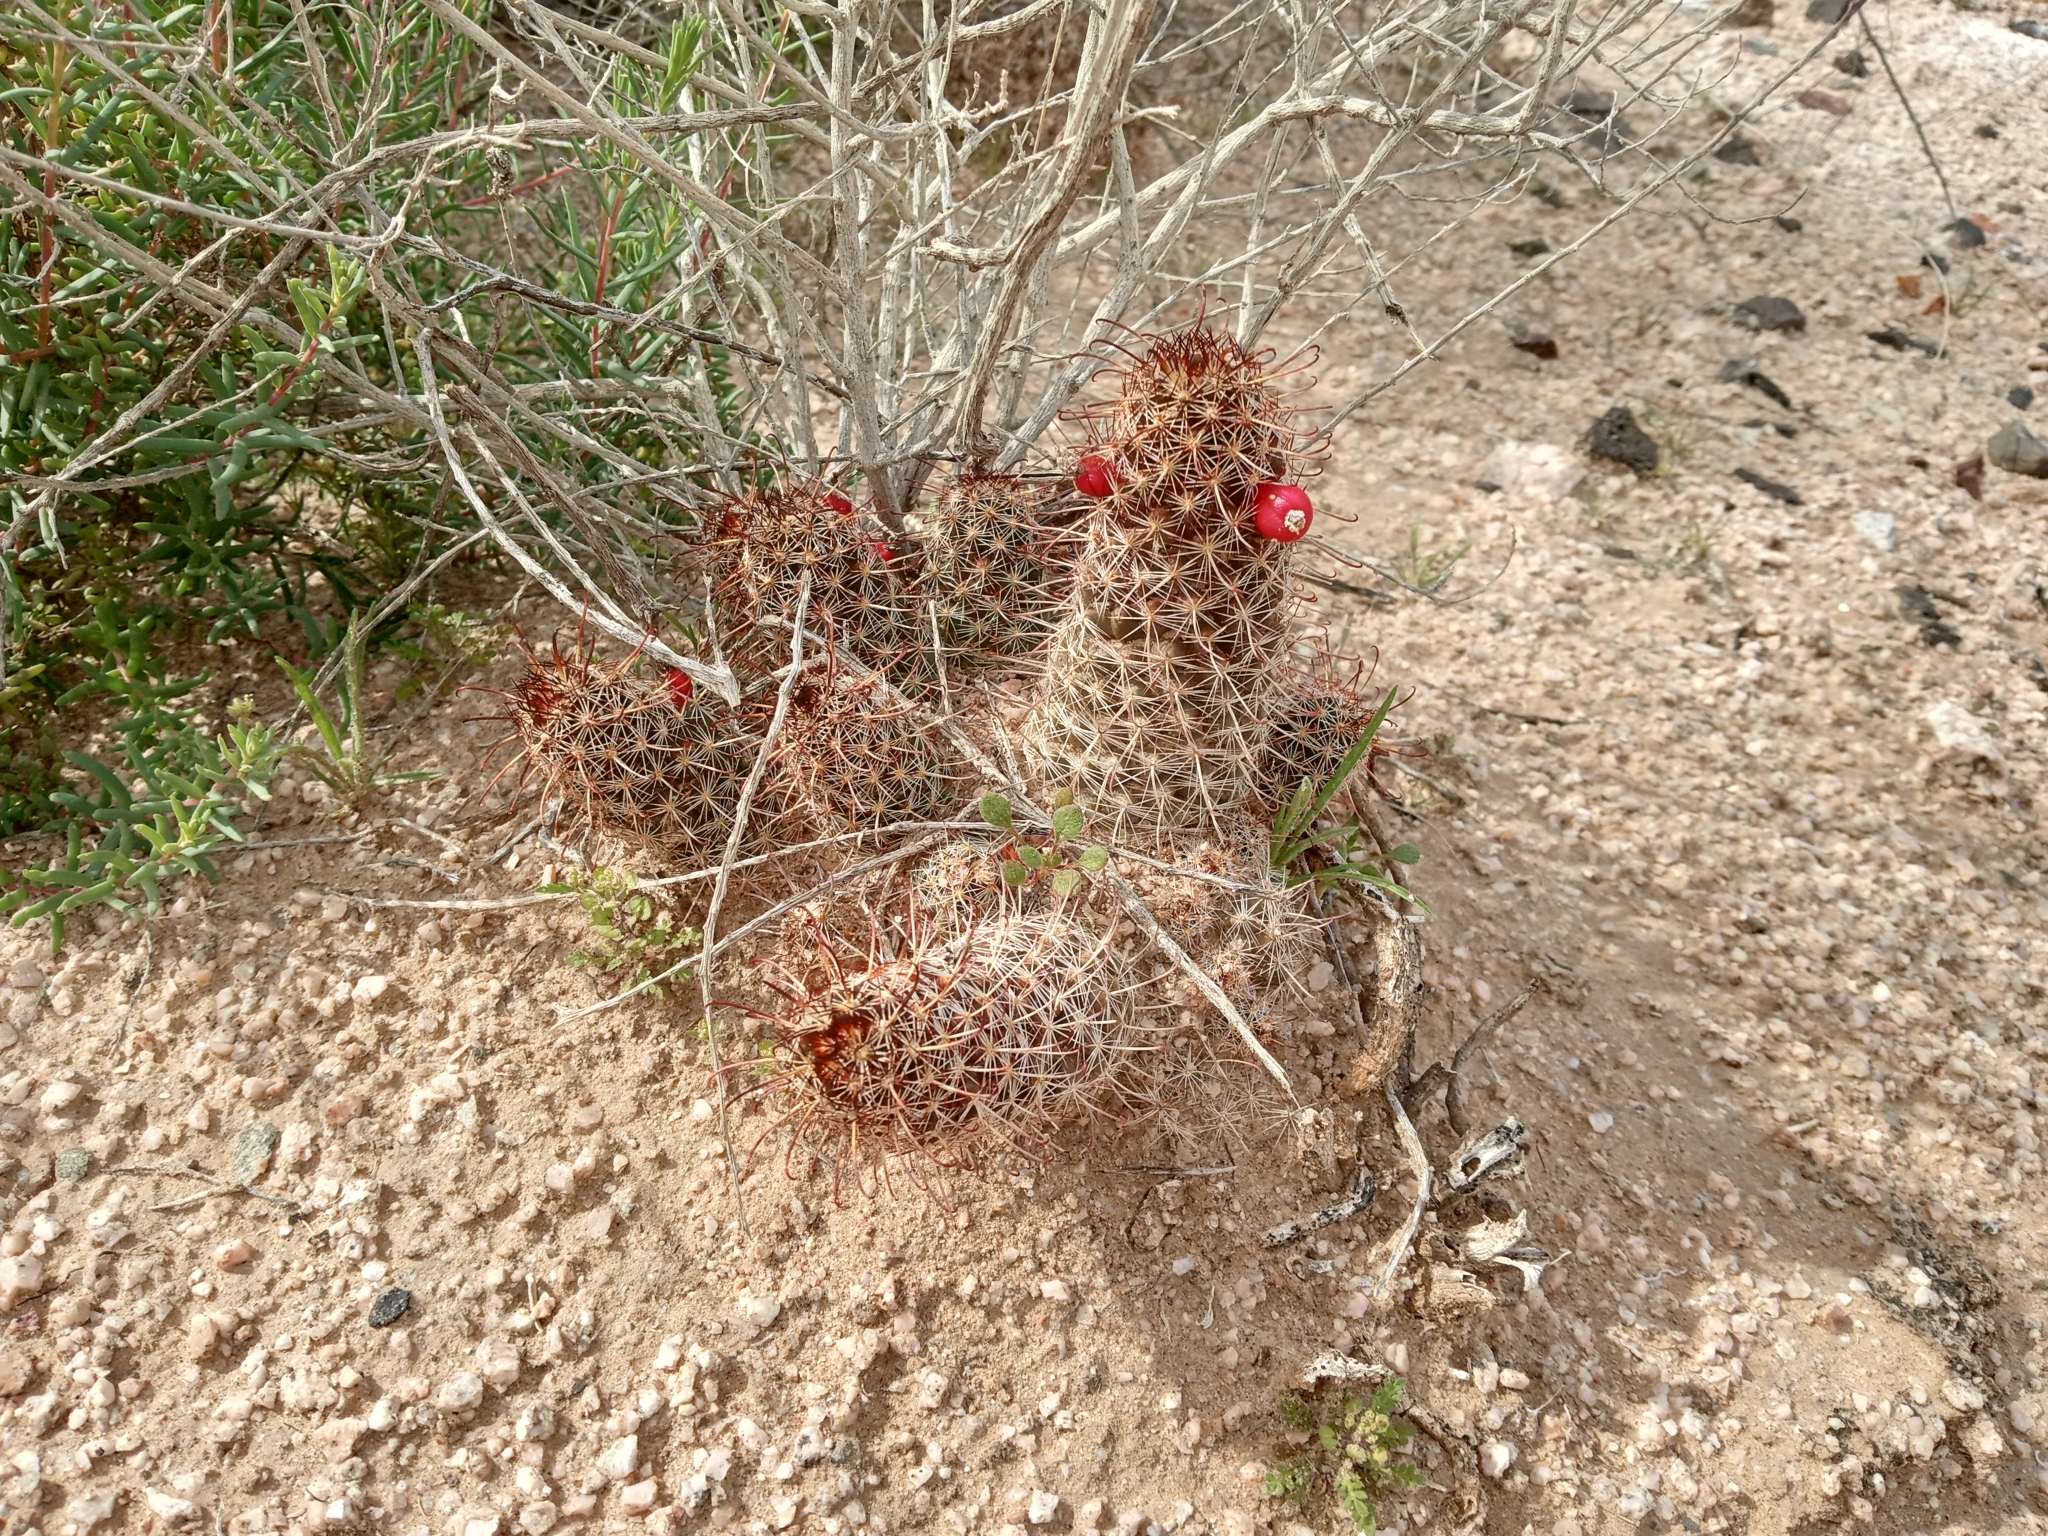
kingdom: Plantae
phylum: Tracheophyta
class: Magnoliopsida
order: Caryophyllales
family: Cactaceae
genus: Cochemiea
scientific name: Cochemiea thornberi
